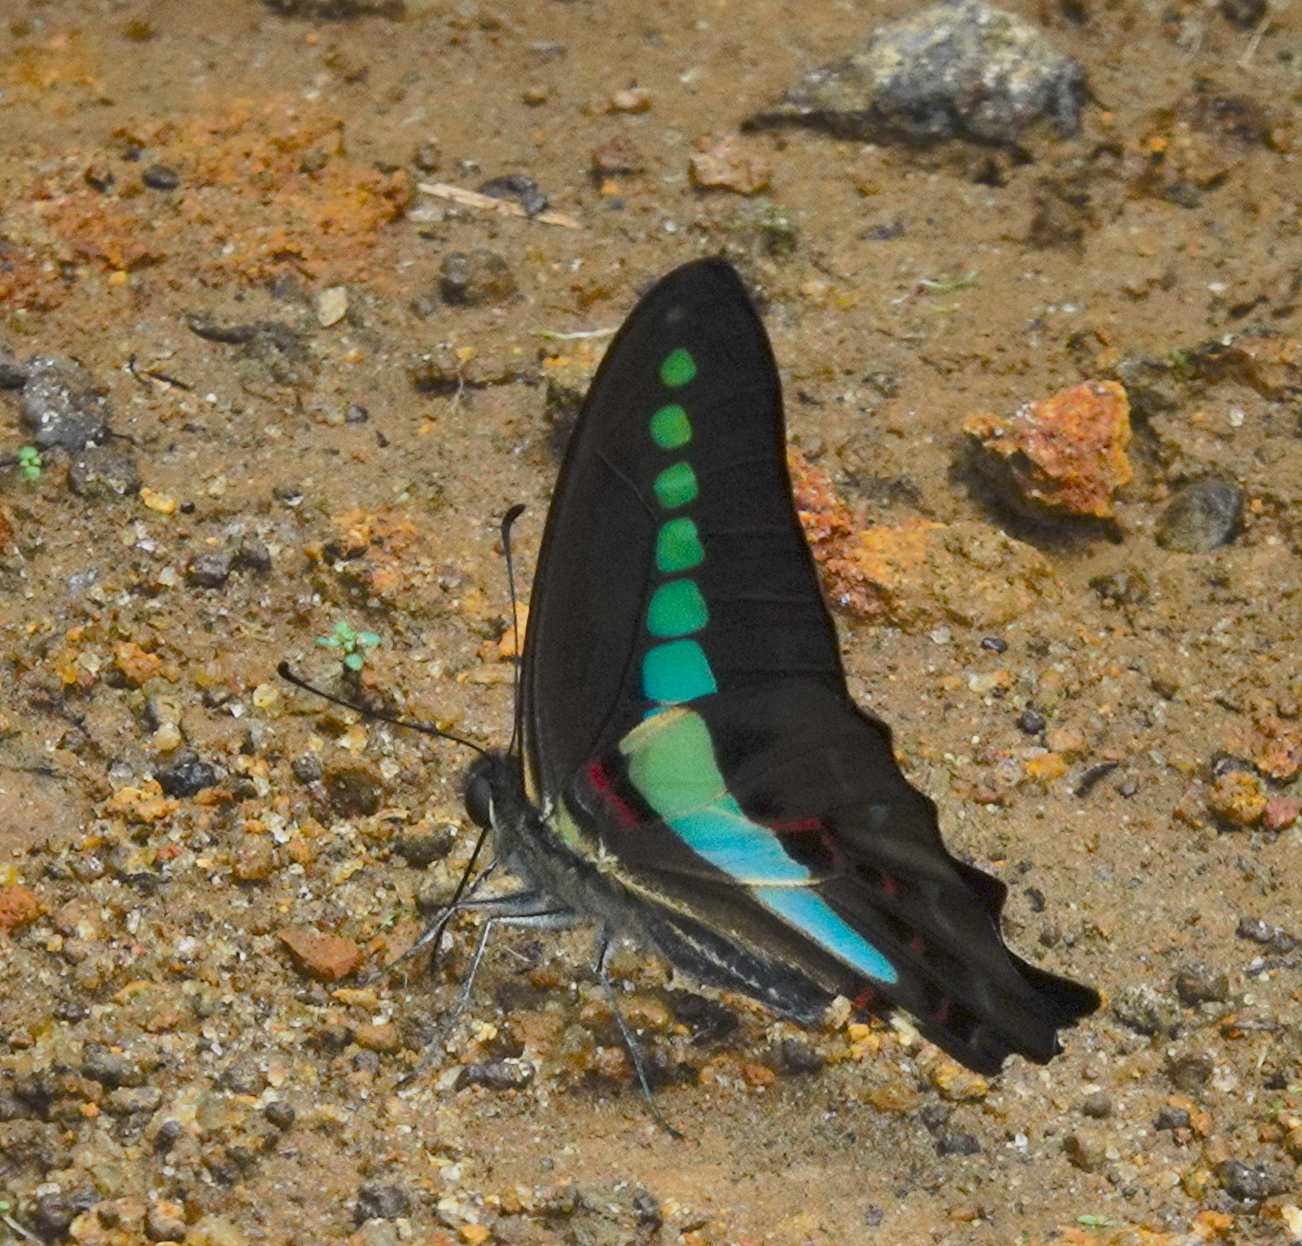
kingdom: Animalia
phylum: Arthropoda
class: Insecta
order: Lepidoptera
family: Papilionidae
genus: Graphium
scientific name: Graphium
